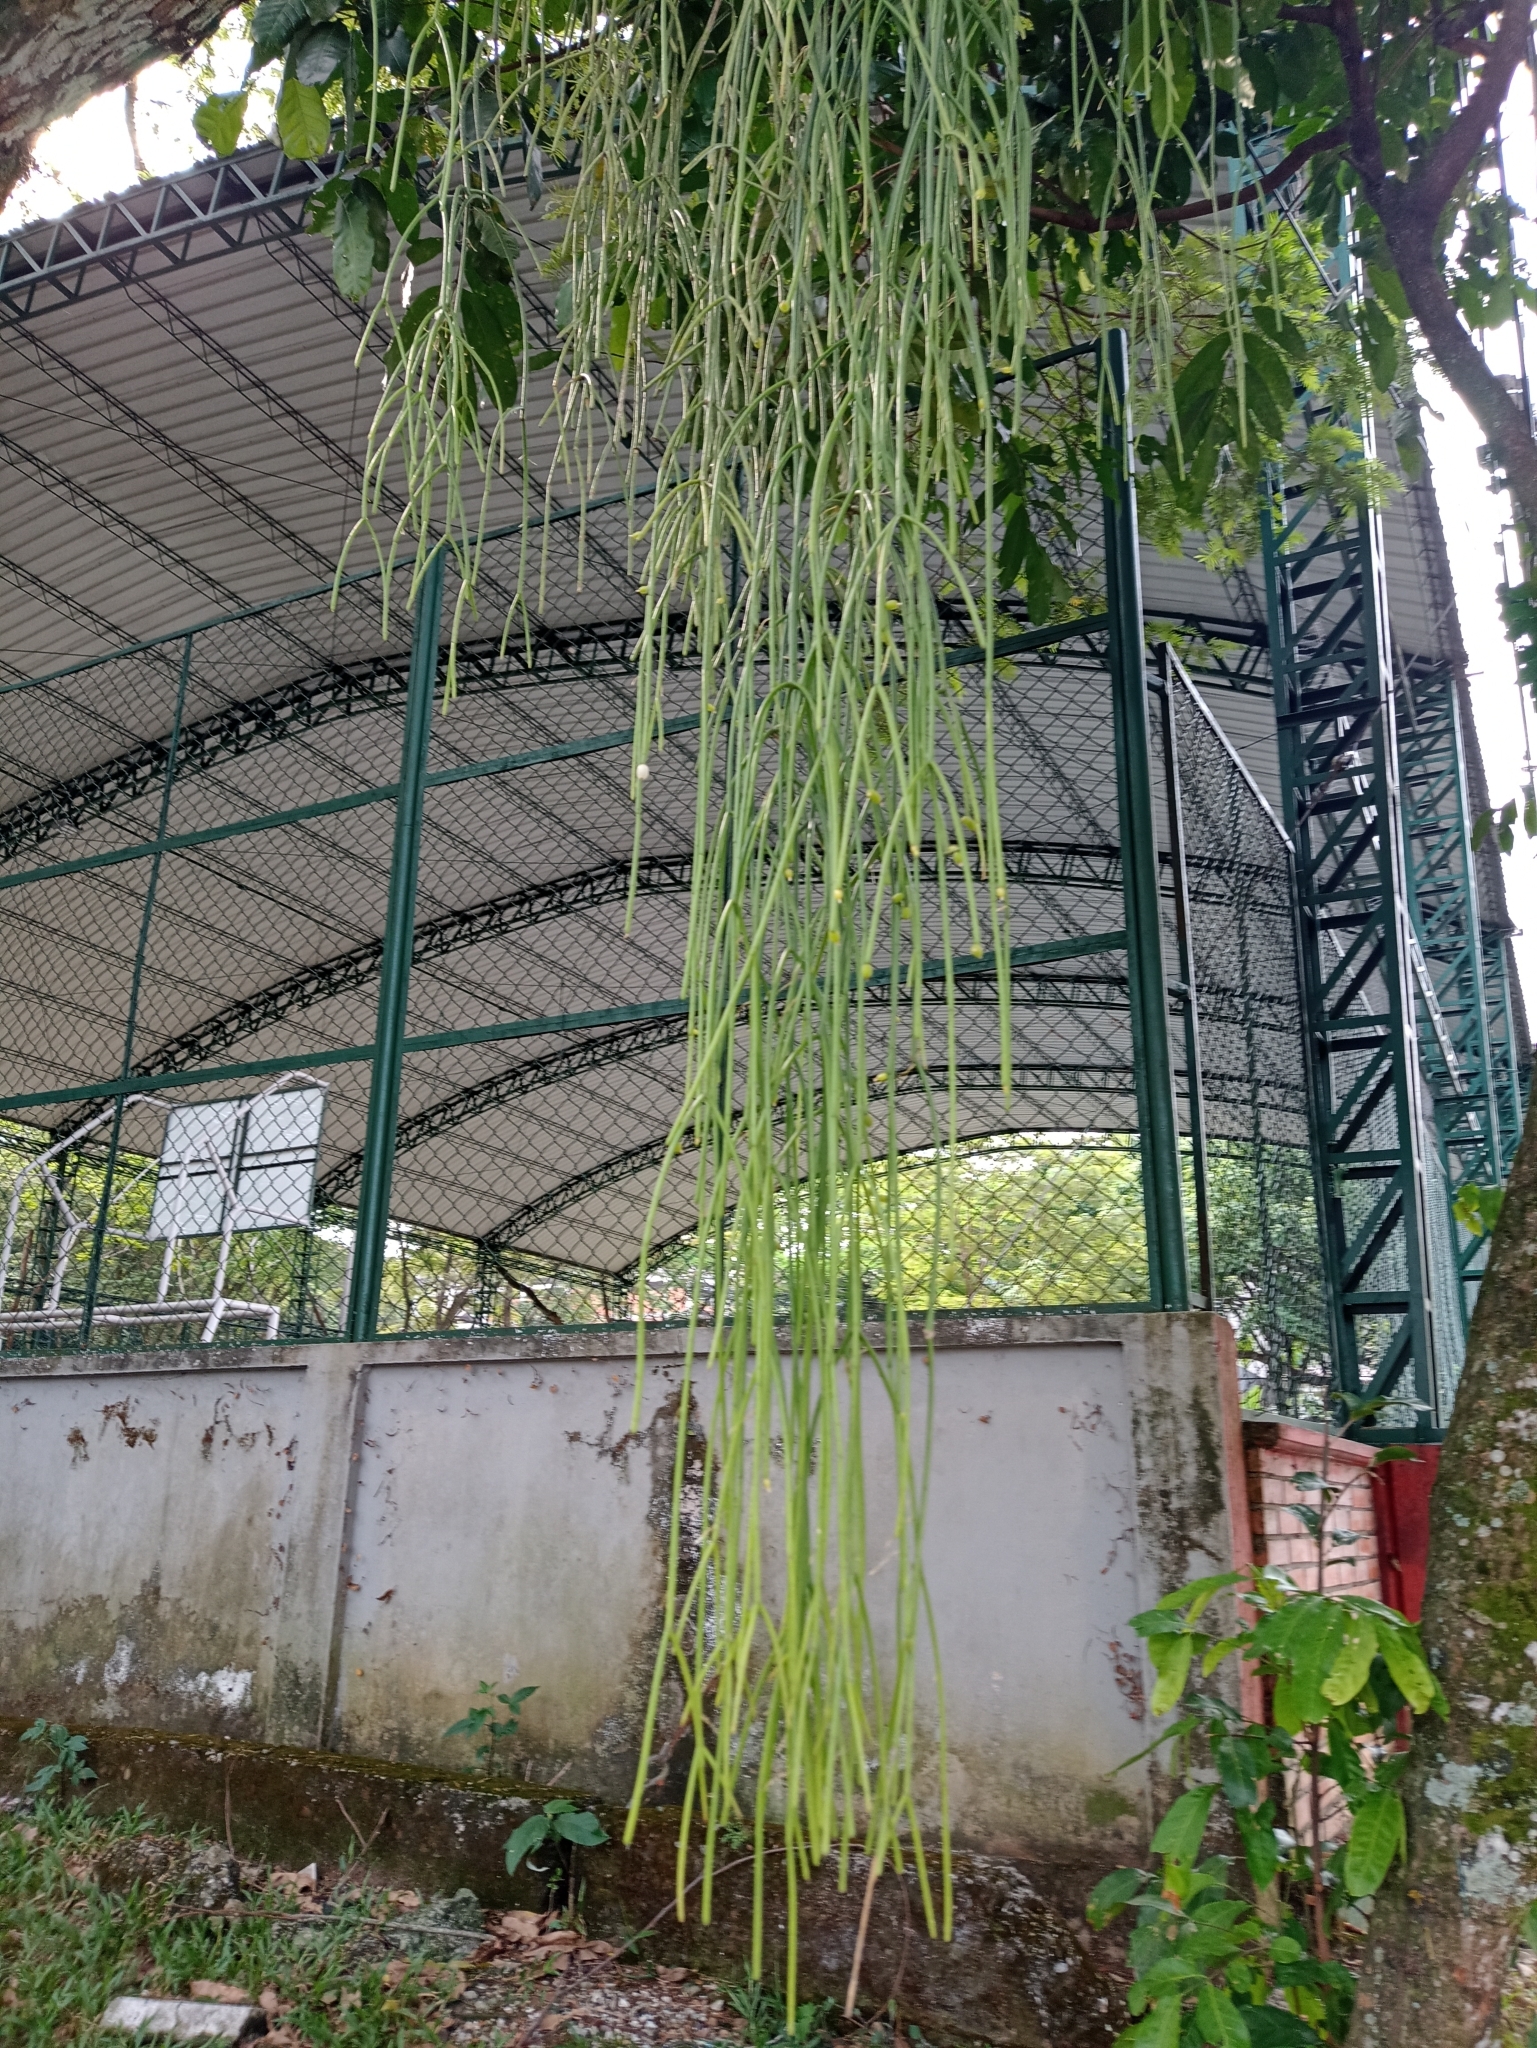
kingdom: Plantae
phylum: Tracheophyta
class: Magnoliopsida
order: Caryophyllales
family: Cactaceae
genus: Rhipsalis
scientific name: Rhipsalis baccifera
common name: Mistletoe cactus
